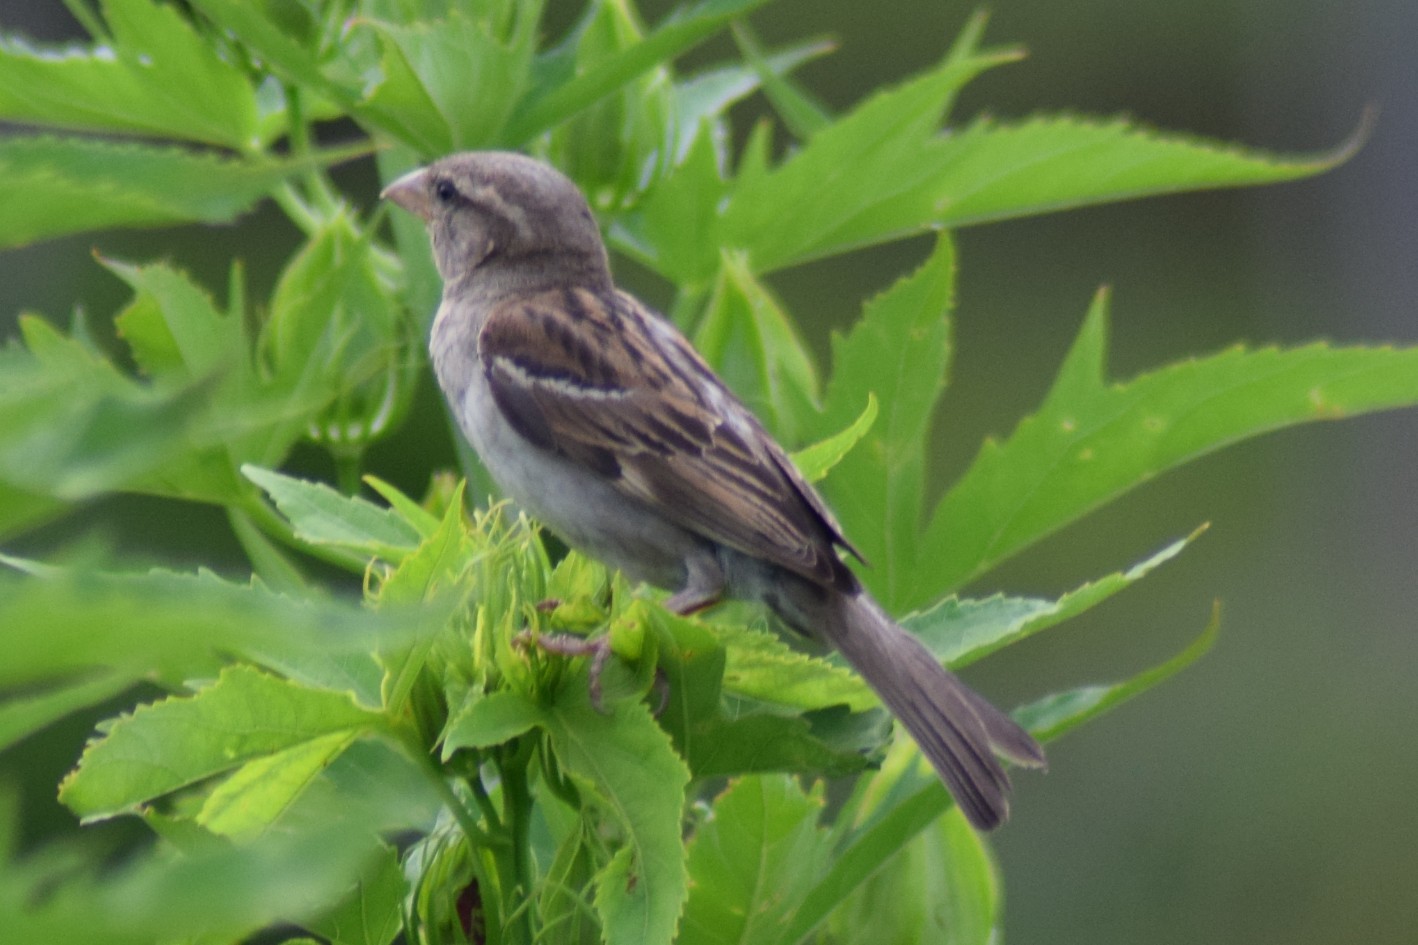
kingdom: Animalia
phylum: Chordata
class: Aves
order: Passeriformes
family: Passeridae
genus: Passer
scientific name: Passer domesticus
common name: House sparrow
